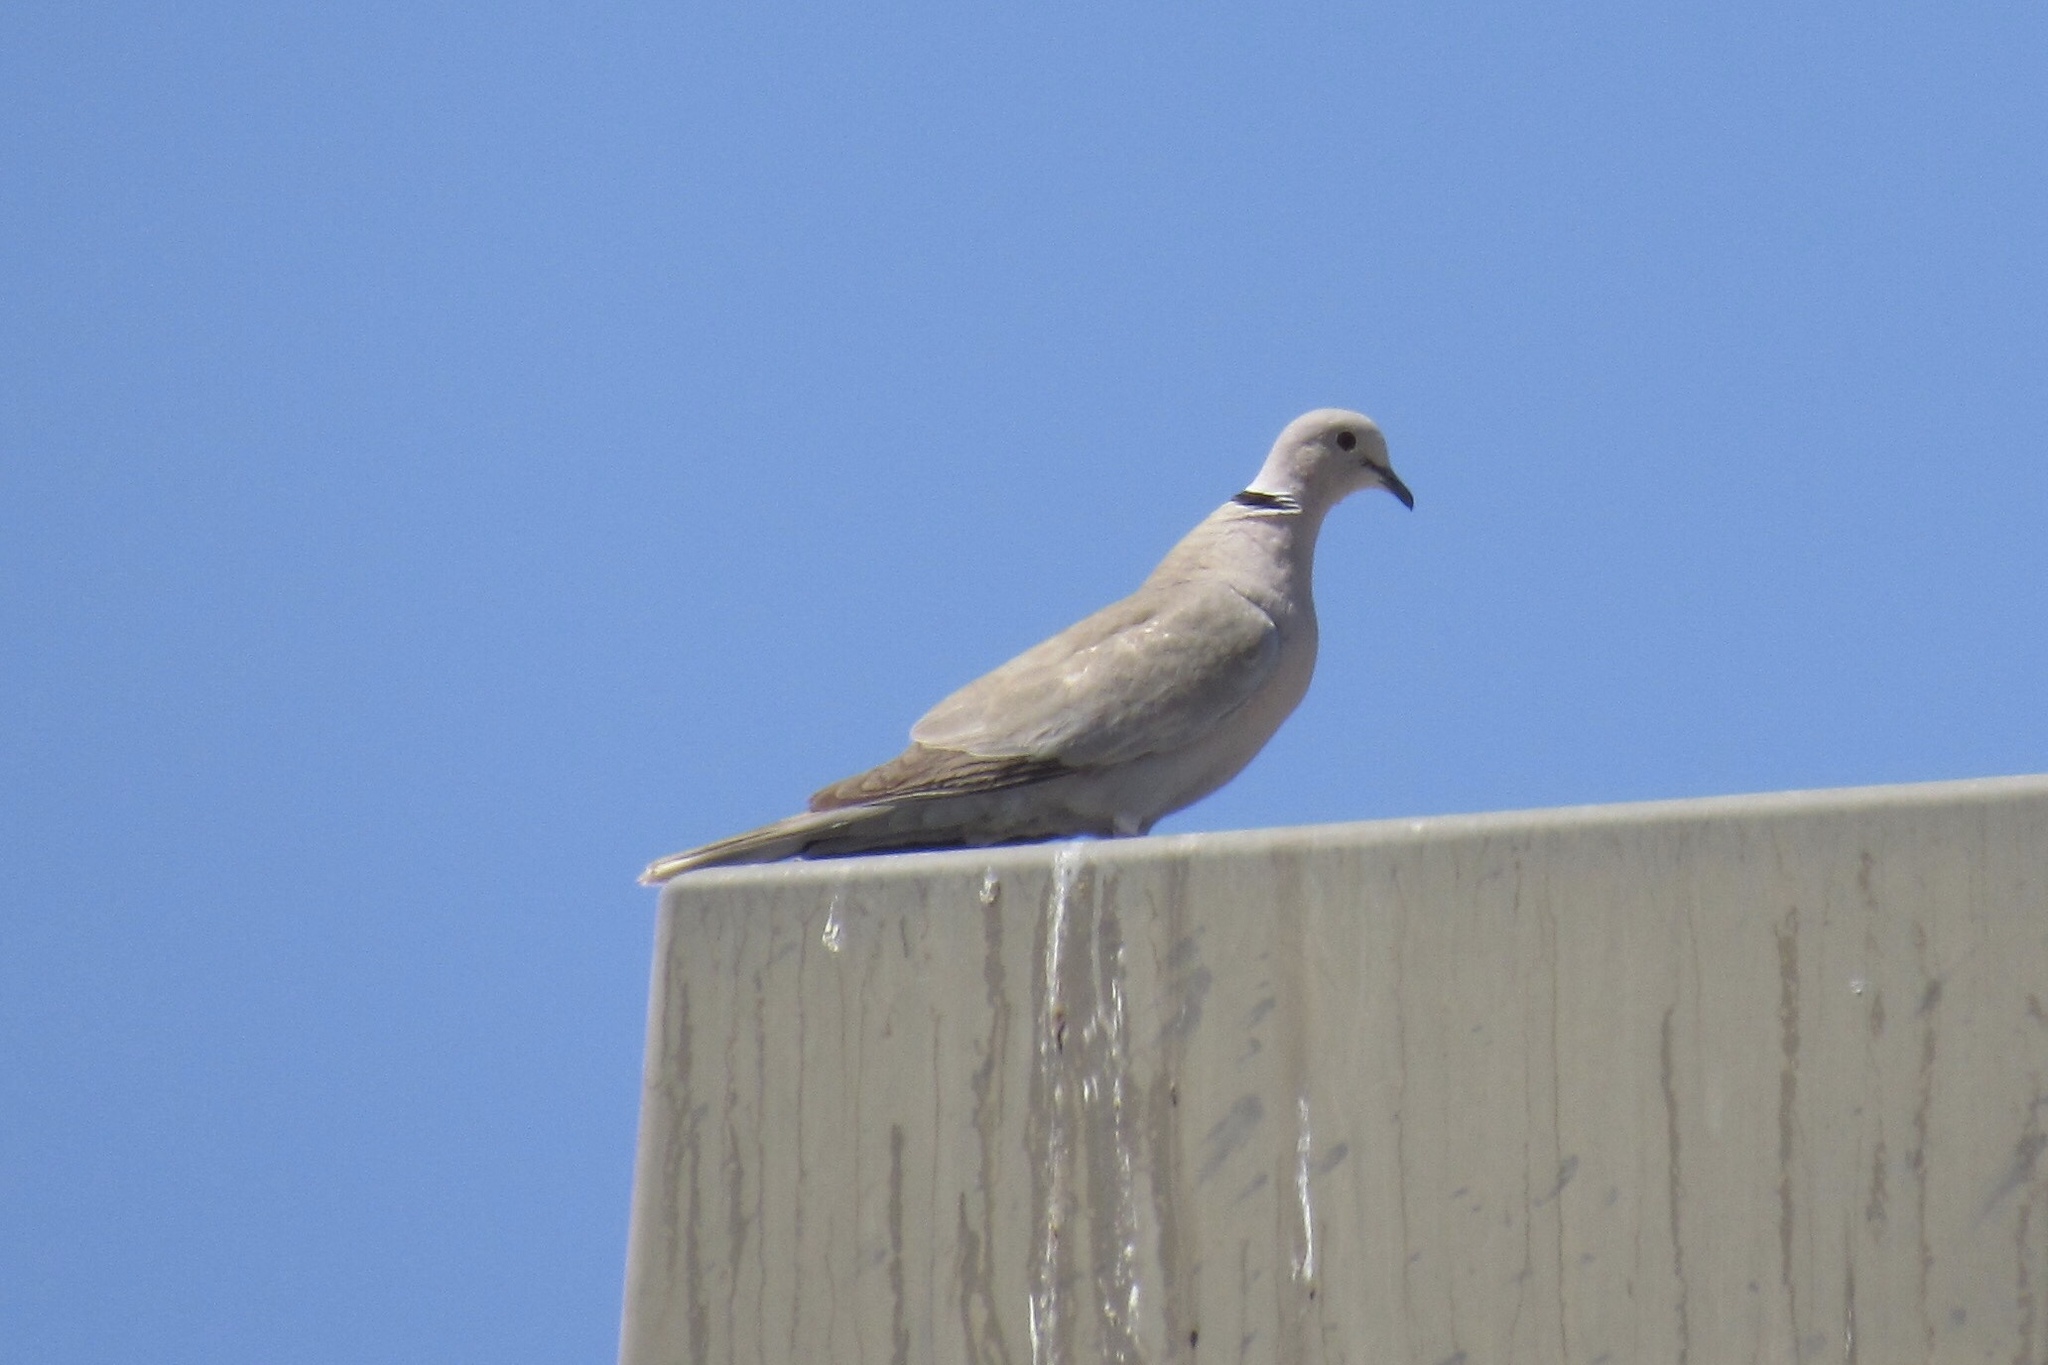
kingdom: Animalia
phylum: Chordata
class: Aves
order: Columbiformes
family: Columbidae
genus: Streptopelia
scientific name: Streptopelia decaocto
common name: Eurasian collared dove
